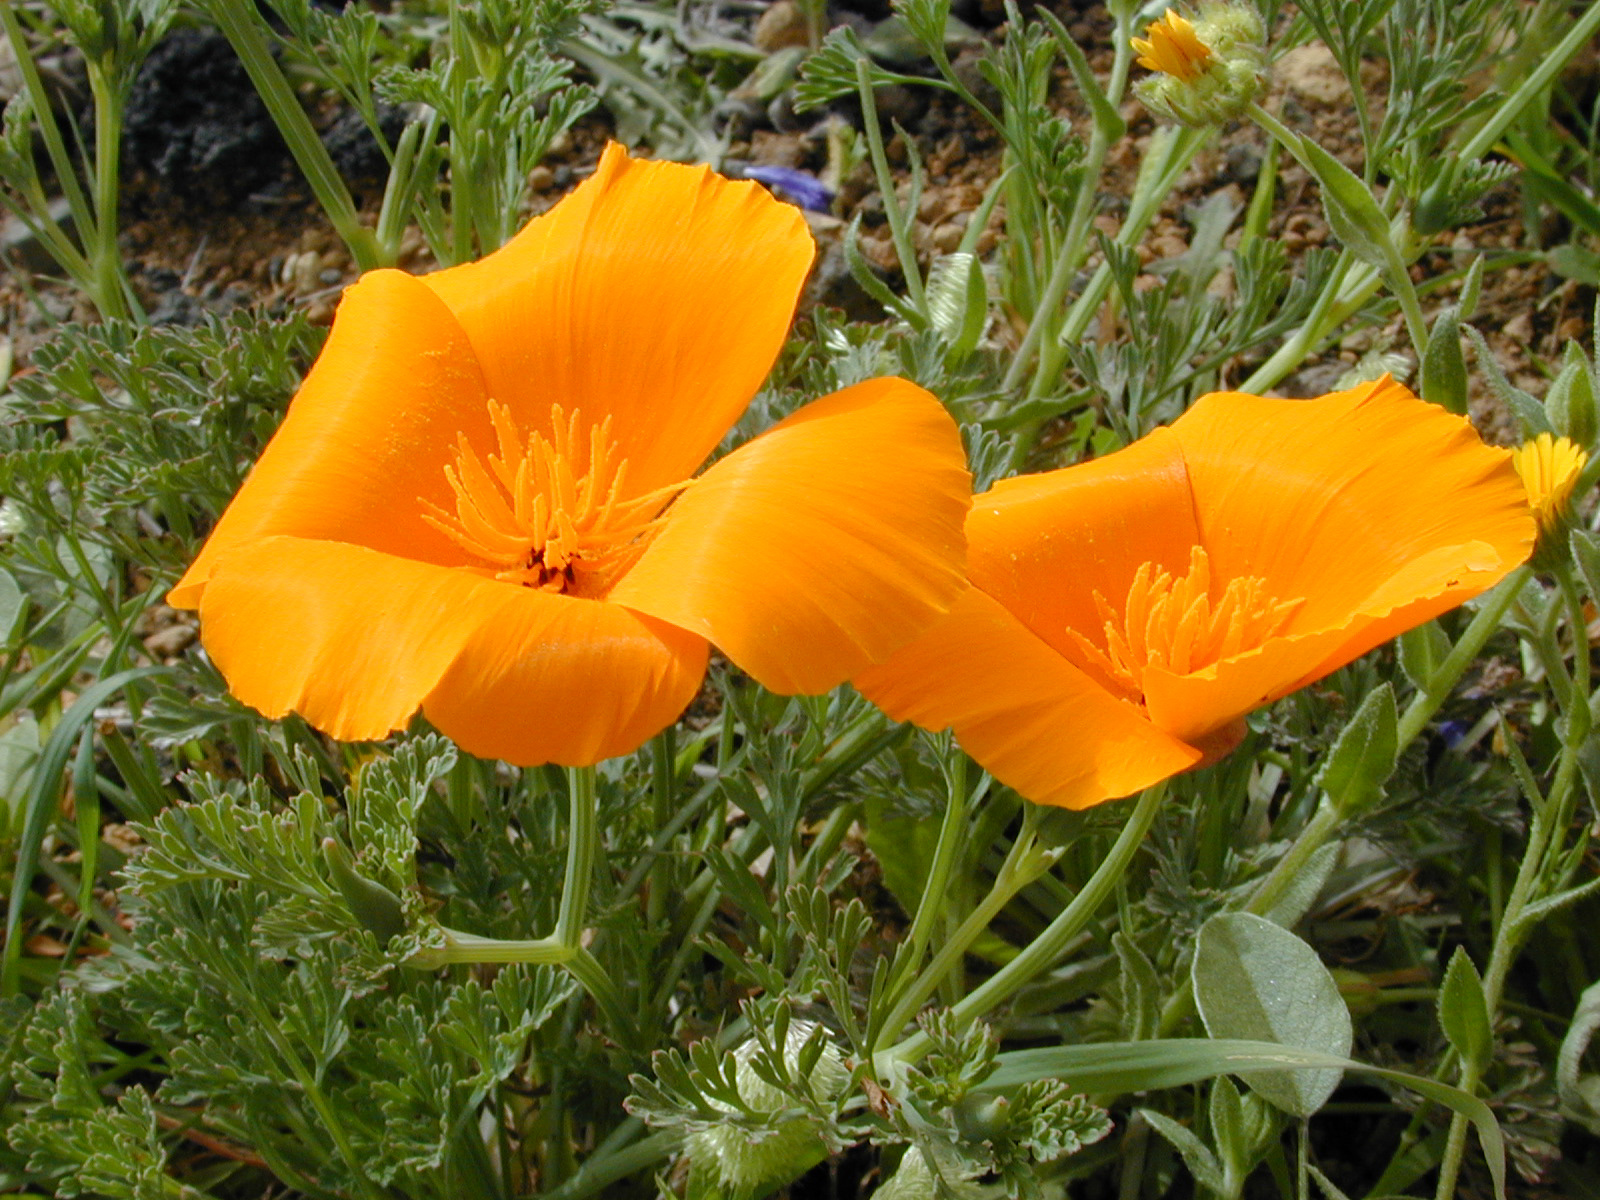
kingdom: Plantae
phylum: Tracheophyta
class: Magnoliopsida
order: Ranunculales
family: Papaveraceae
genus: Eschscholzia
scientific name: Eschscholzia californica
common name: California poppy
